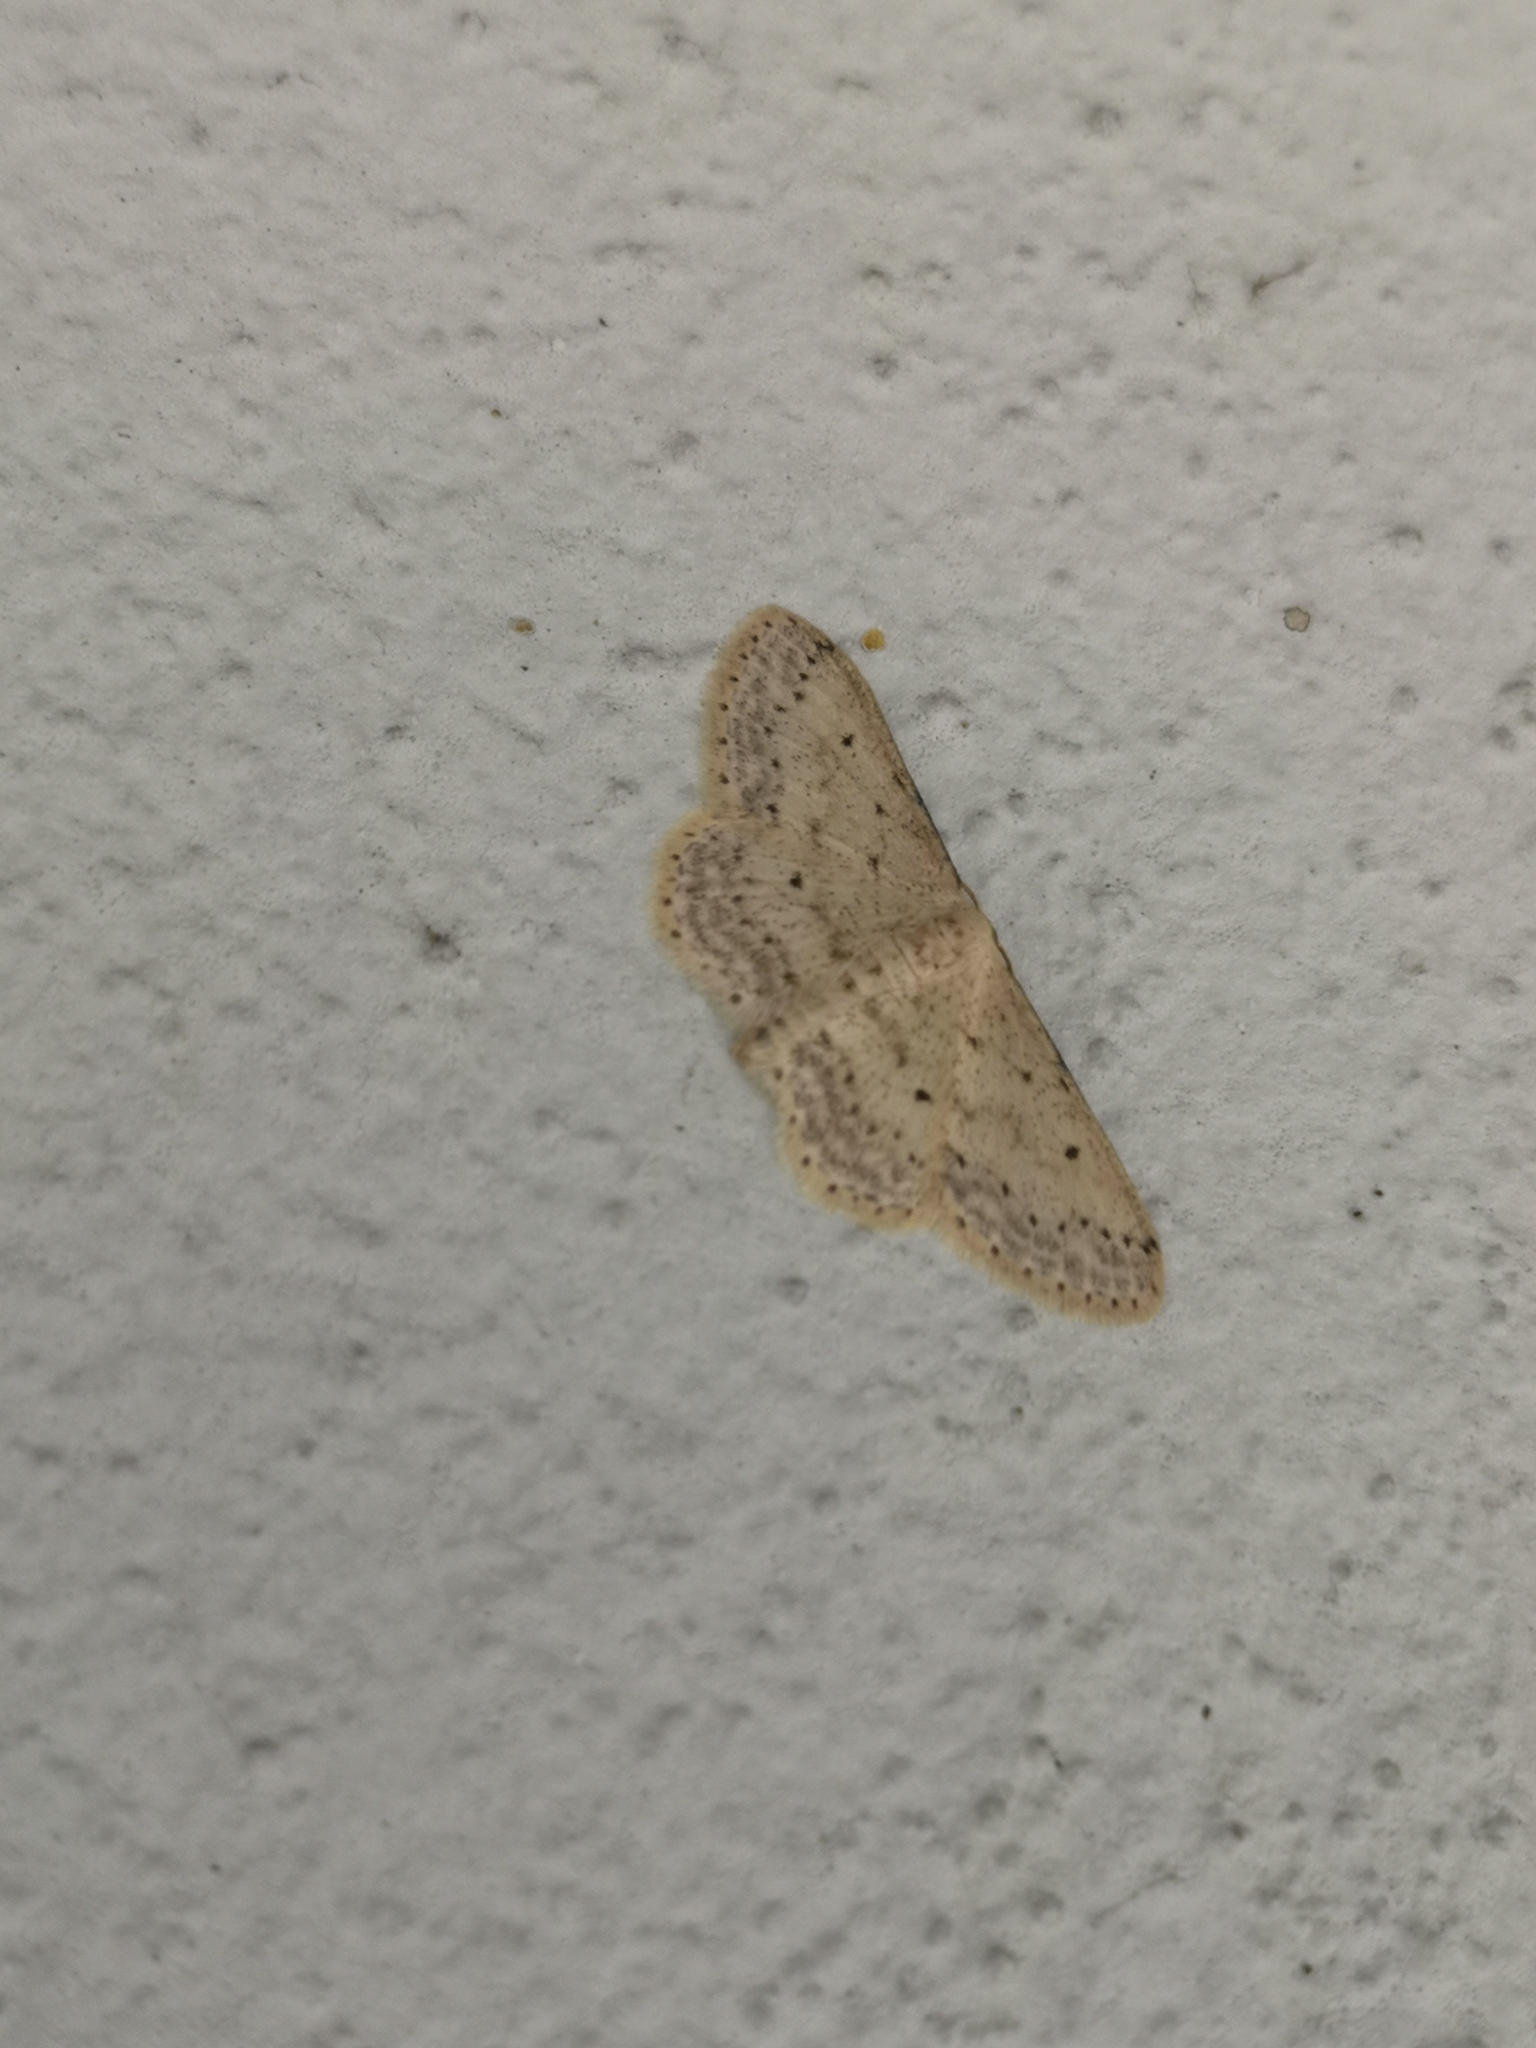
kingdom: Animalia
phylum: Arthropoda
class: Insecta
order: Lepidoptera
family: Geometridae
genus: Idaea
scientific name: Idaea seriata
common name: Small dusty wave
